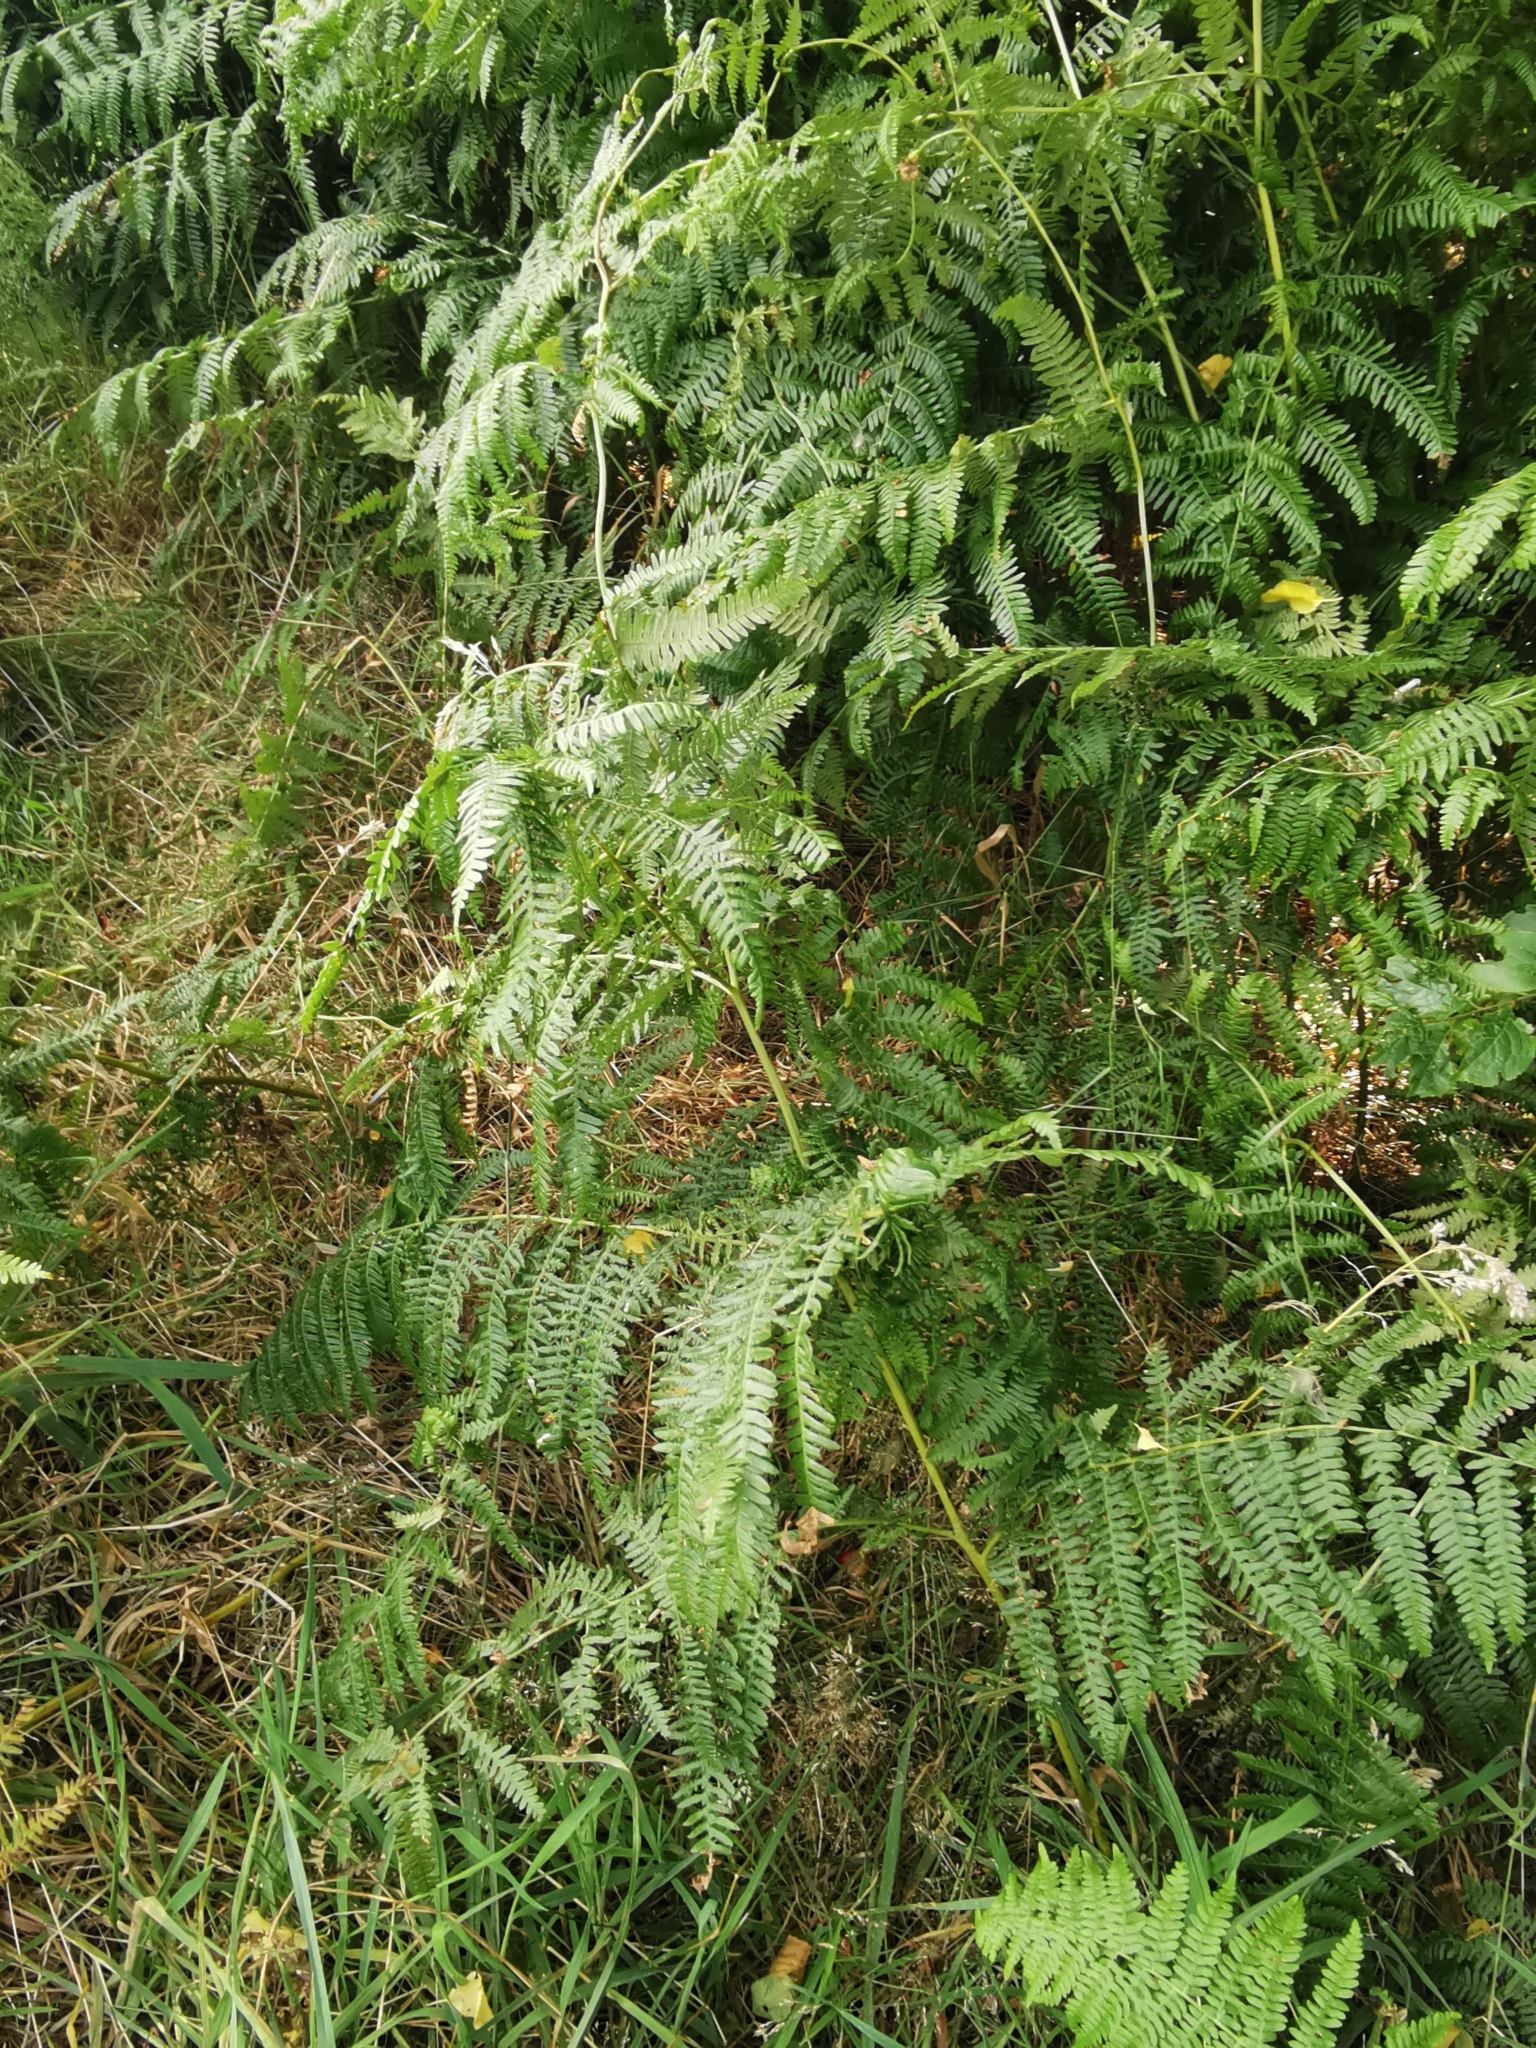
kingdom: Plantae
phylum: Tracheophyta
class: Polypodiopsida
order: Polypodiales
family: Dennstaedtiaceae
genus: Pteridium
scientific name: Pteridium aquilinum
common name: Bracken
